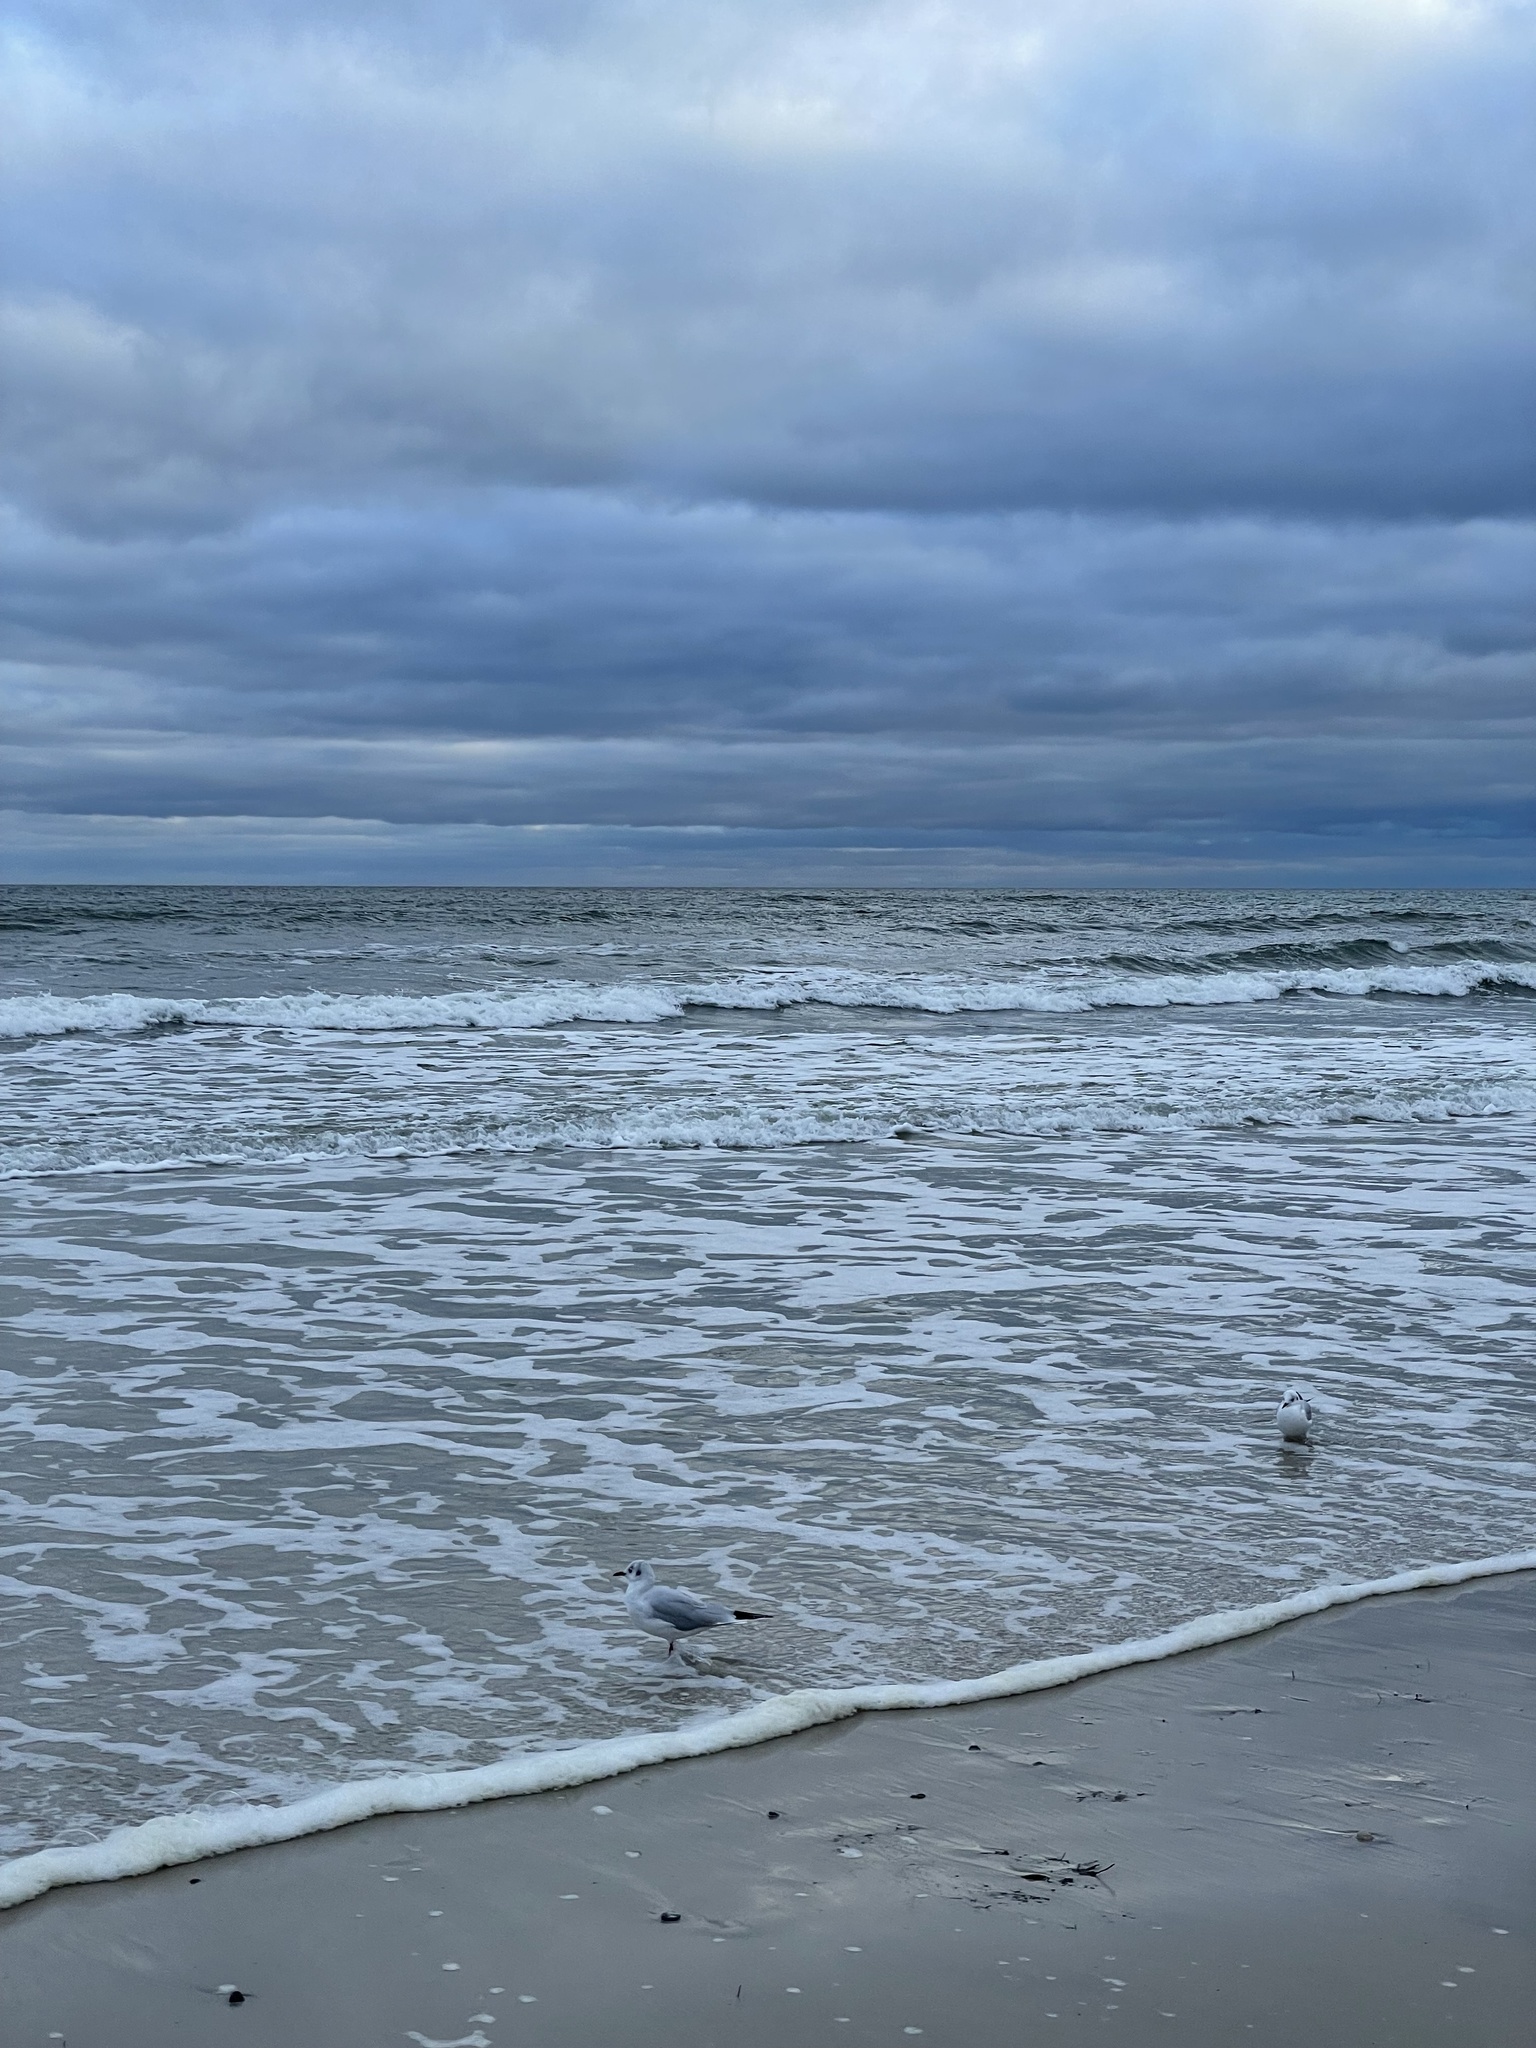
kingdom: Animalia
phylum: Chordata
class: Aves
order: Charadriiformes
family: Laridae
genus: Chroicocephalus
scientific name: Chroicocephalus ridibundus
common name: Black-headed gull
